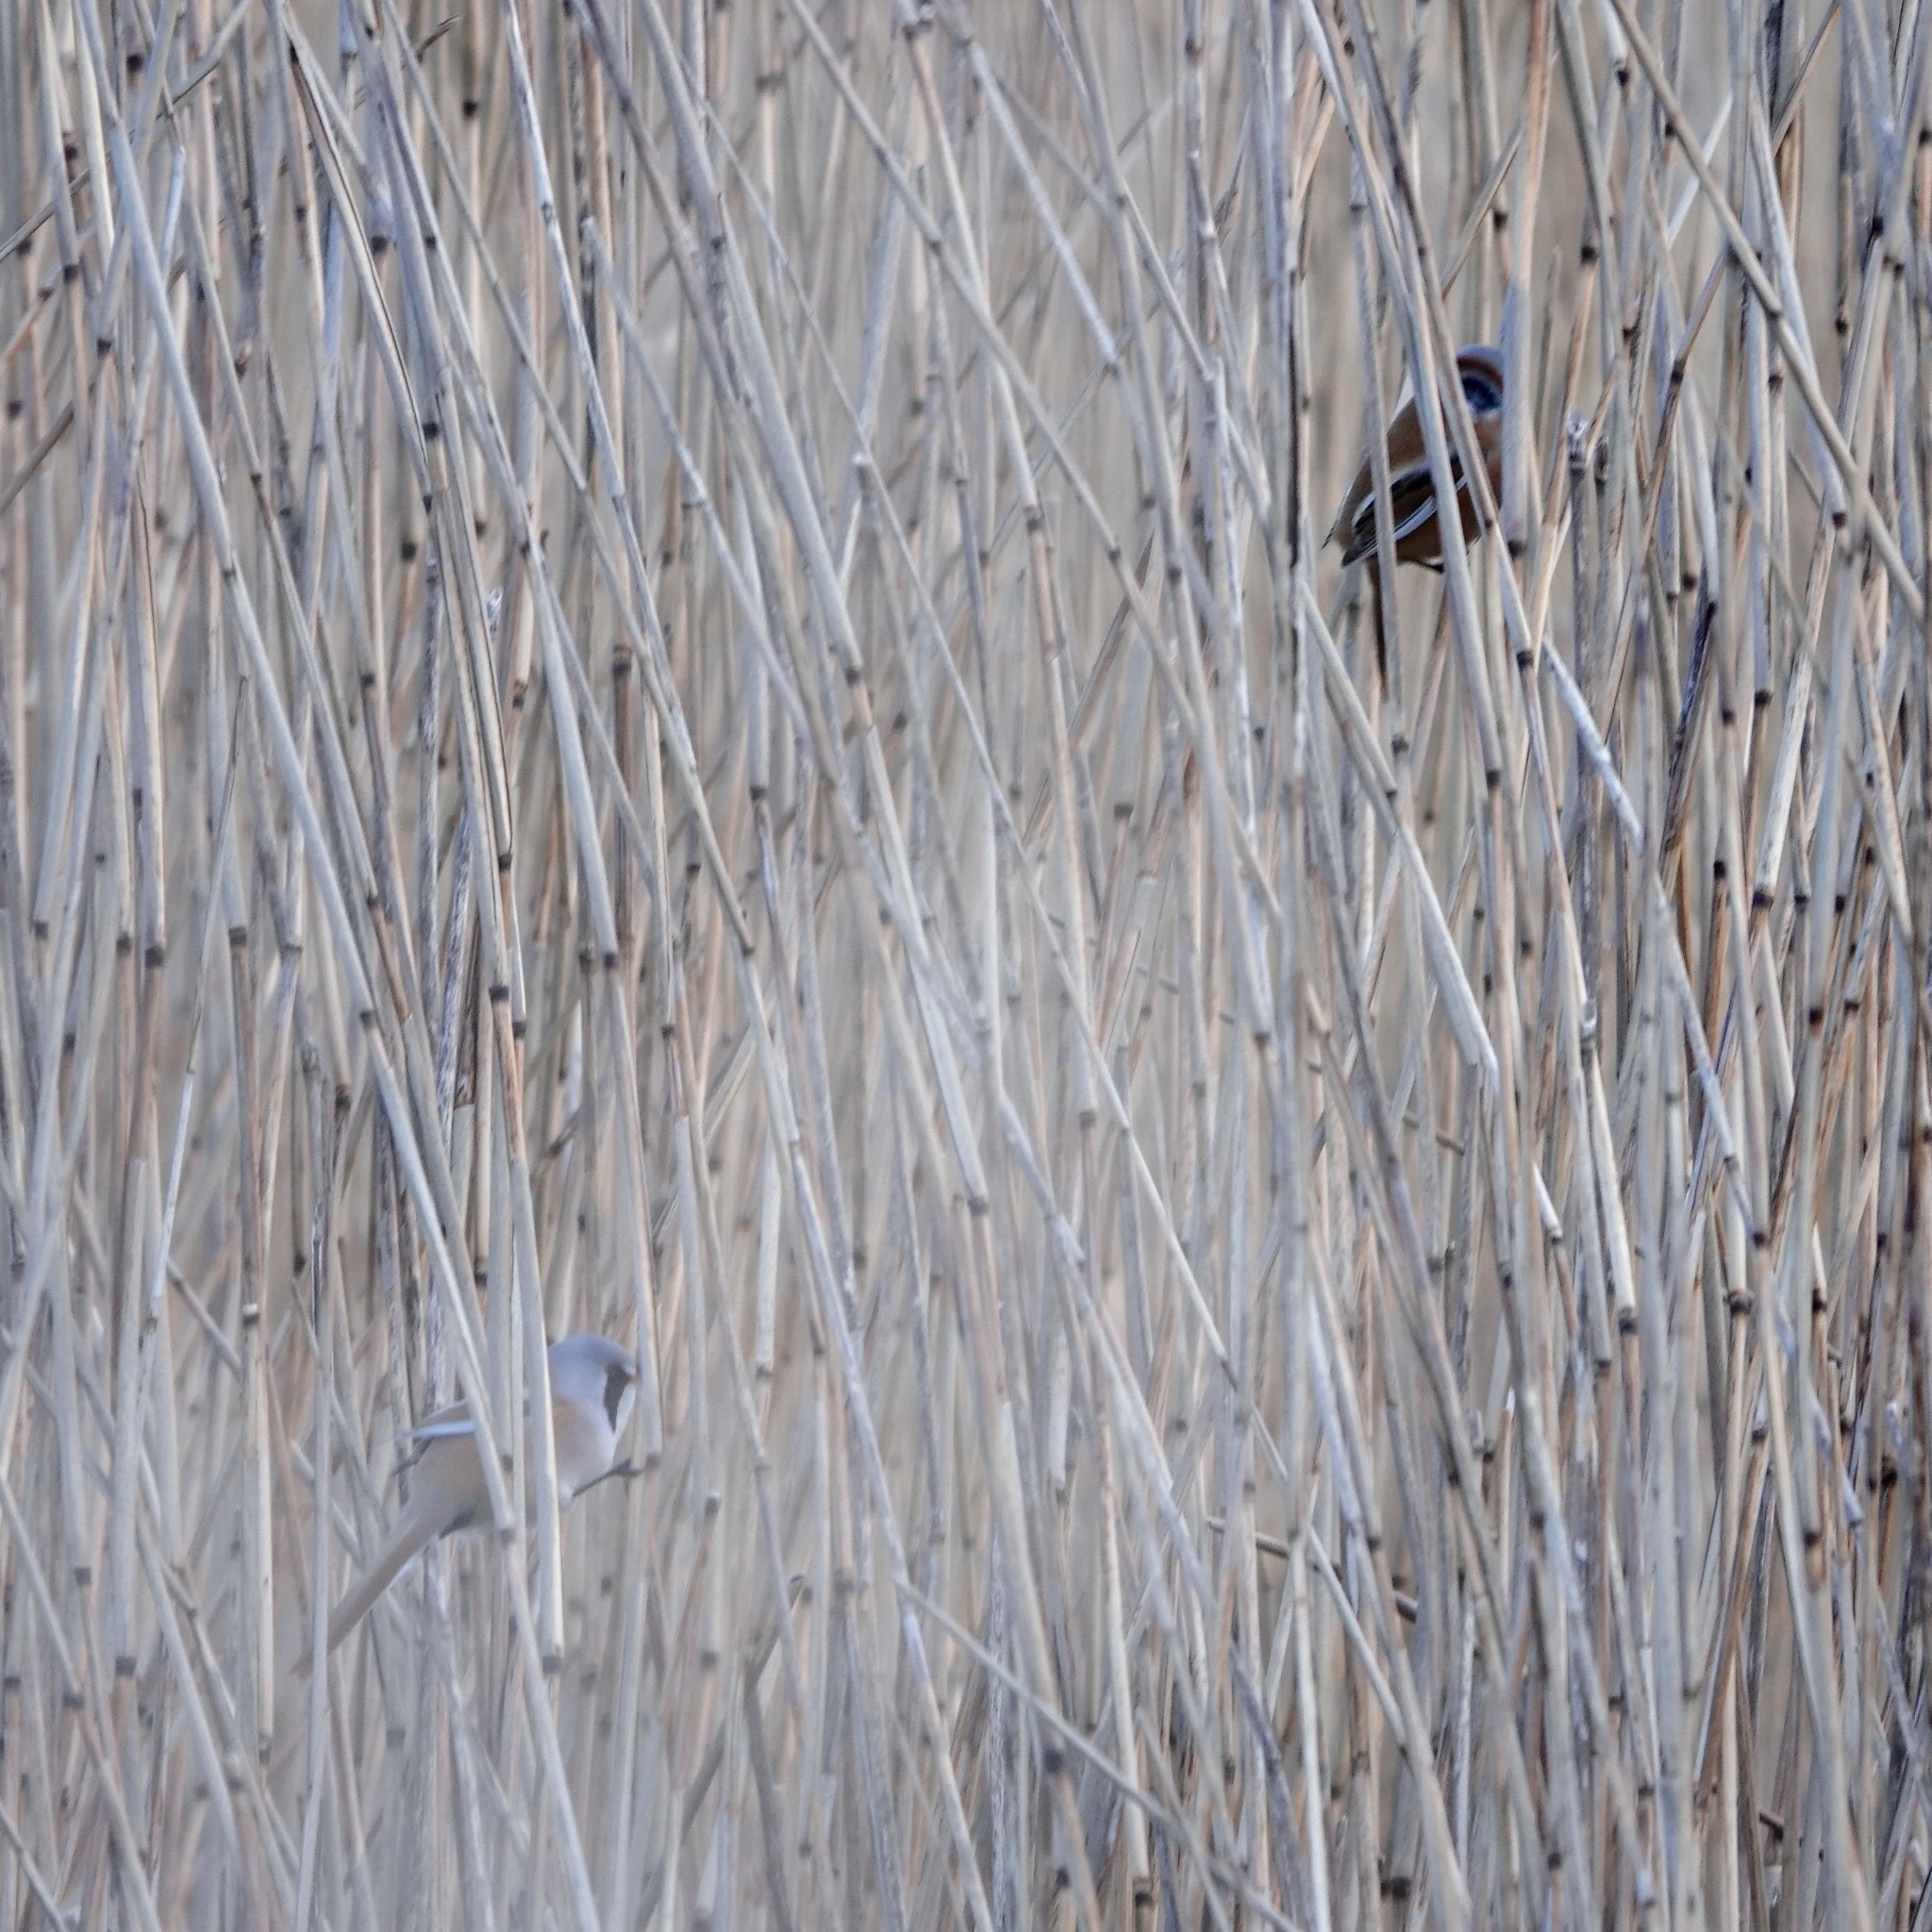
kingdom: Animalia
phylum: Chordata
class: Aves
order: Passeriformes
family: Panuridae
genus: Panurus
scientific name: Panurus biarmicus
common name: Bearded reedling
